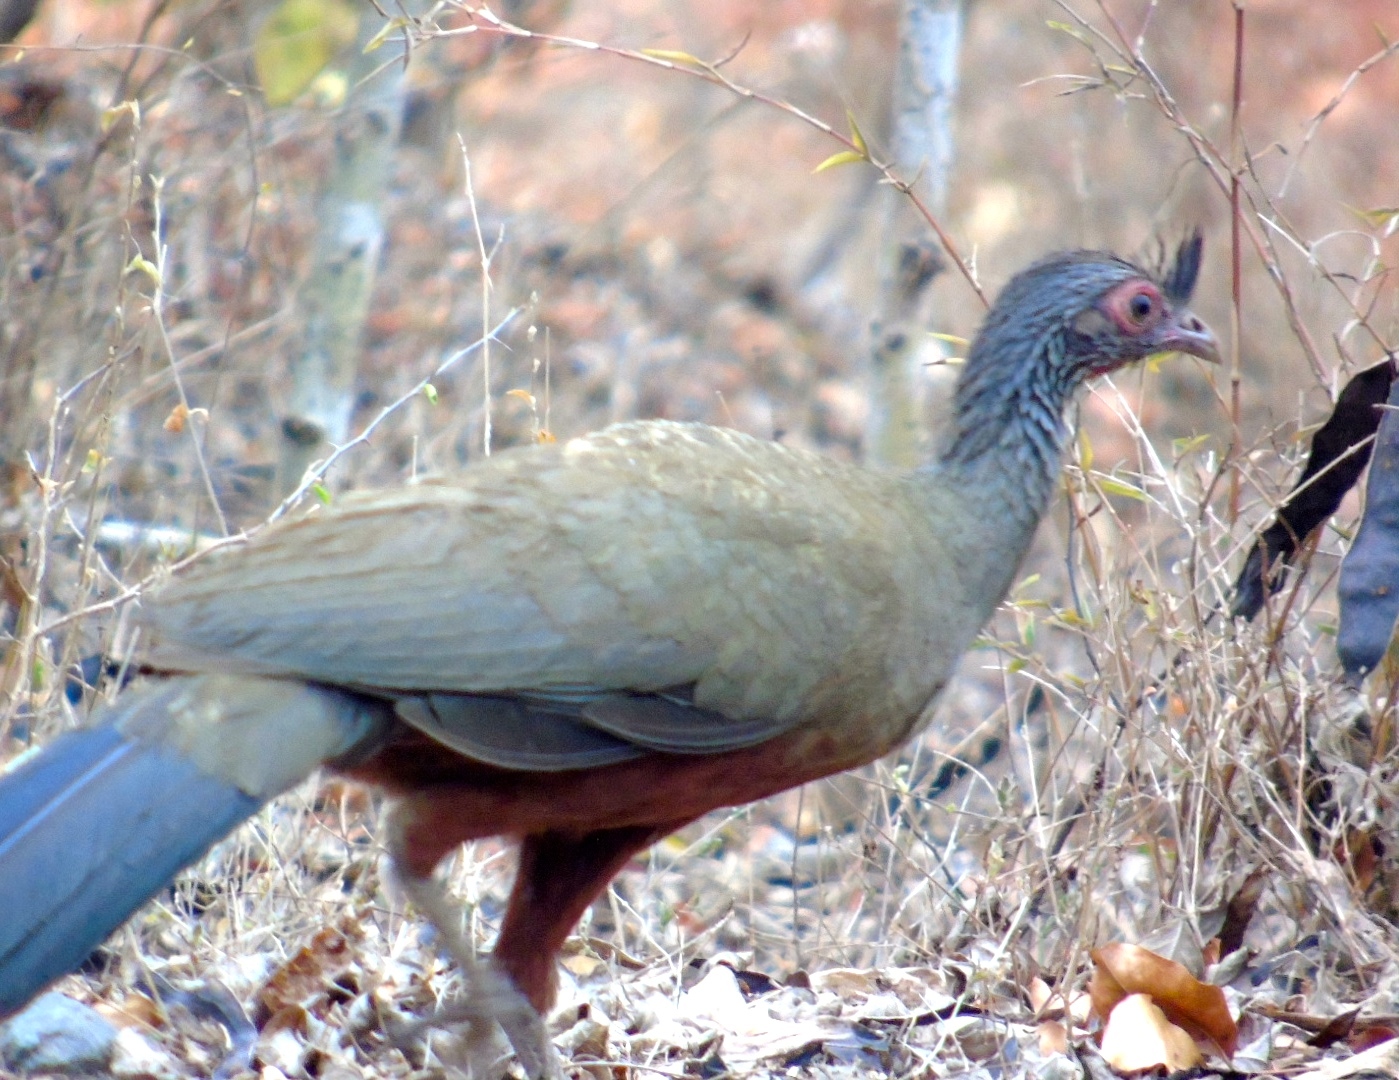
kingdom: Animalia
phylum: Chordata
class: Aves
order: Galliformes
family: Cracidae
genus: Ortalis
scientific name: Ortalis wagleri
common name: Rufous-bellied chachalaca
